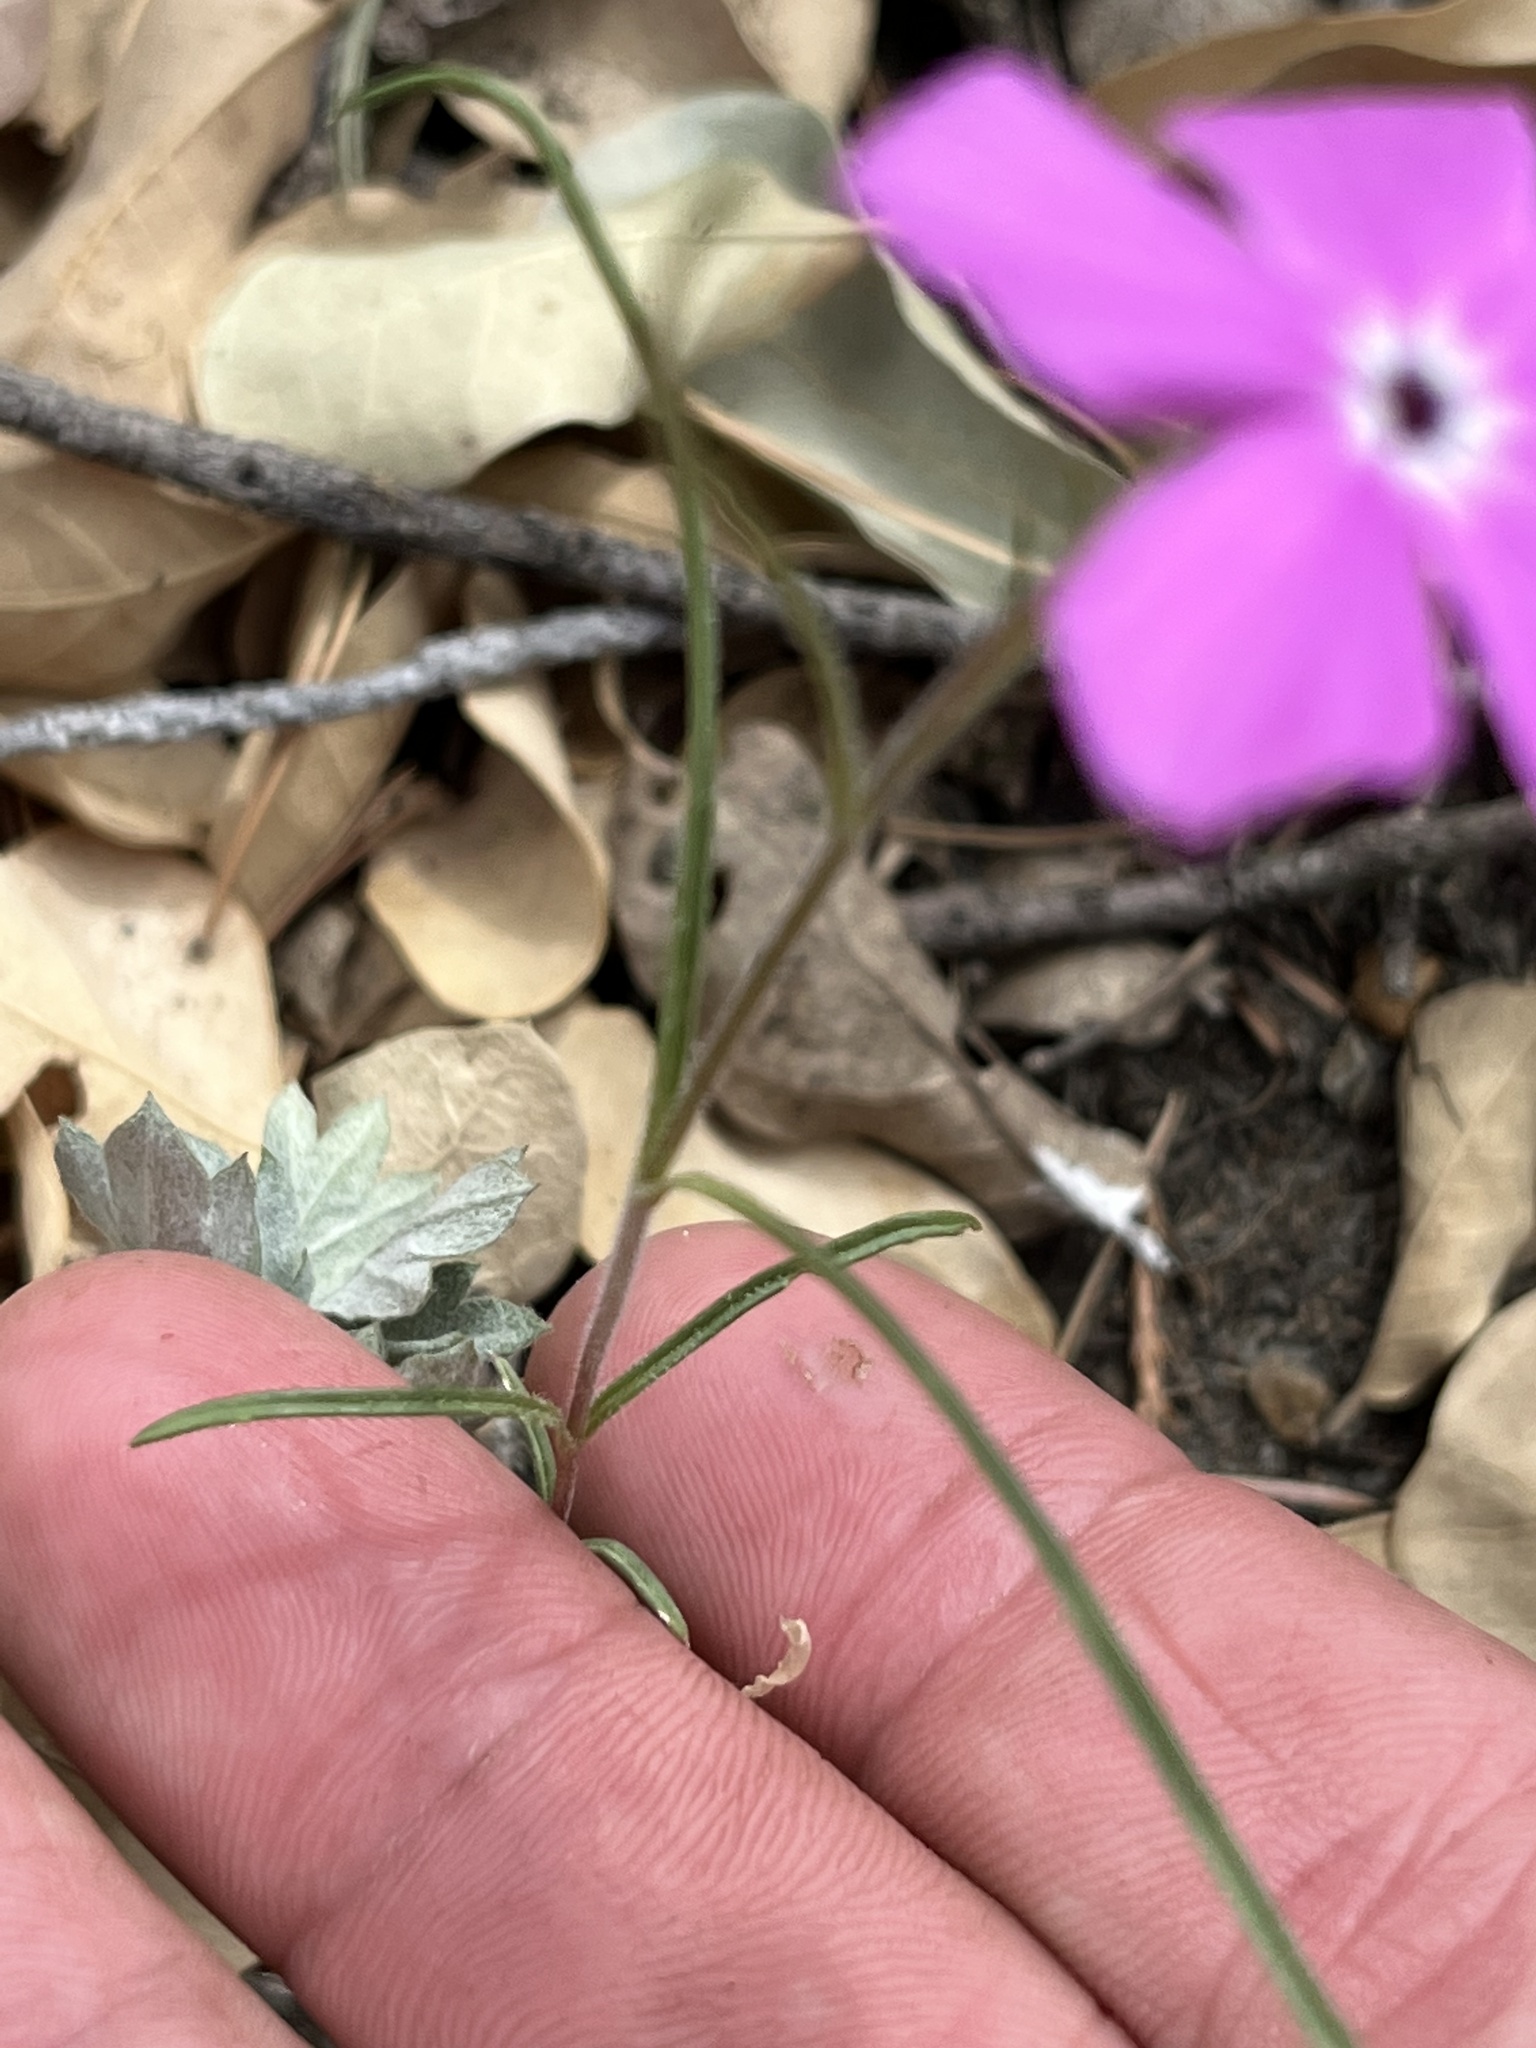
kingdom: Plantae
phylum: Tracheophyta
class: Magnoliopsida
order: Ericales
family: Polemoniaceae
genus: Phlox
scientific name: Phlox nana
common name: Santa fe phlox
